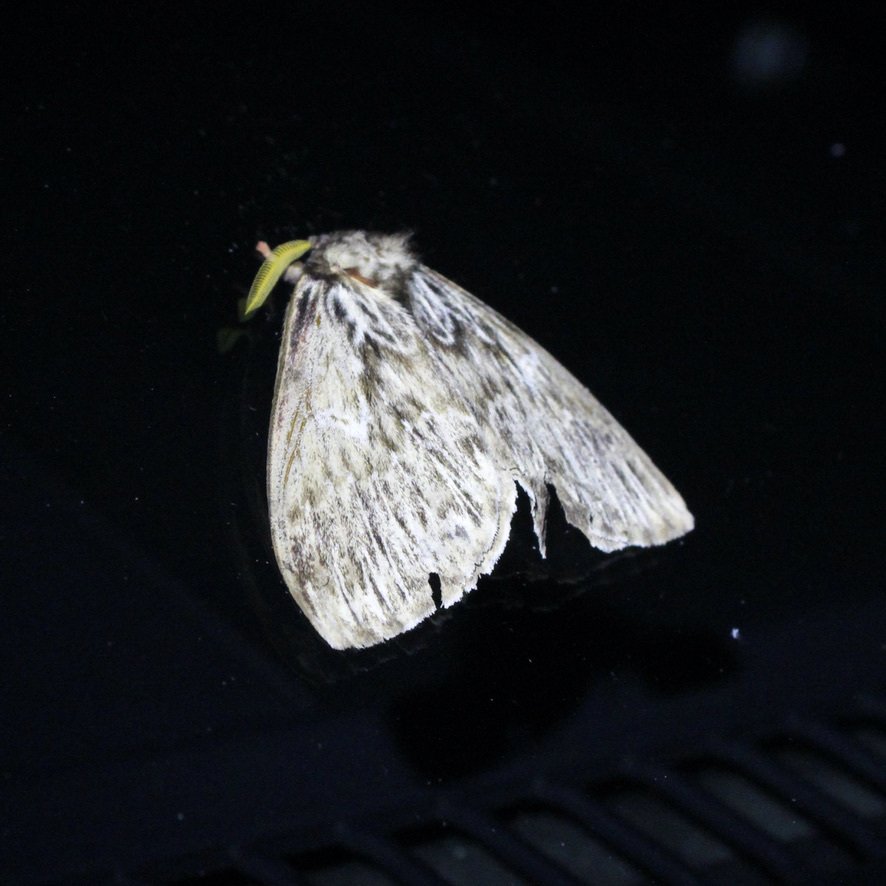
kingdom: Animalia
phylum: Arthropoda
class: Insecta
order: Lepidoptera
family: Saturniidae
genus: Dirphia
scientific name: Dirphia radiata
